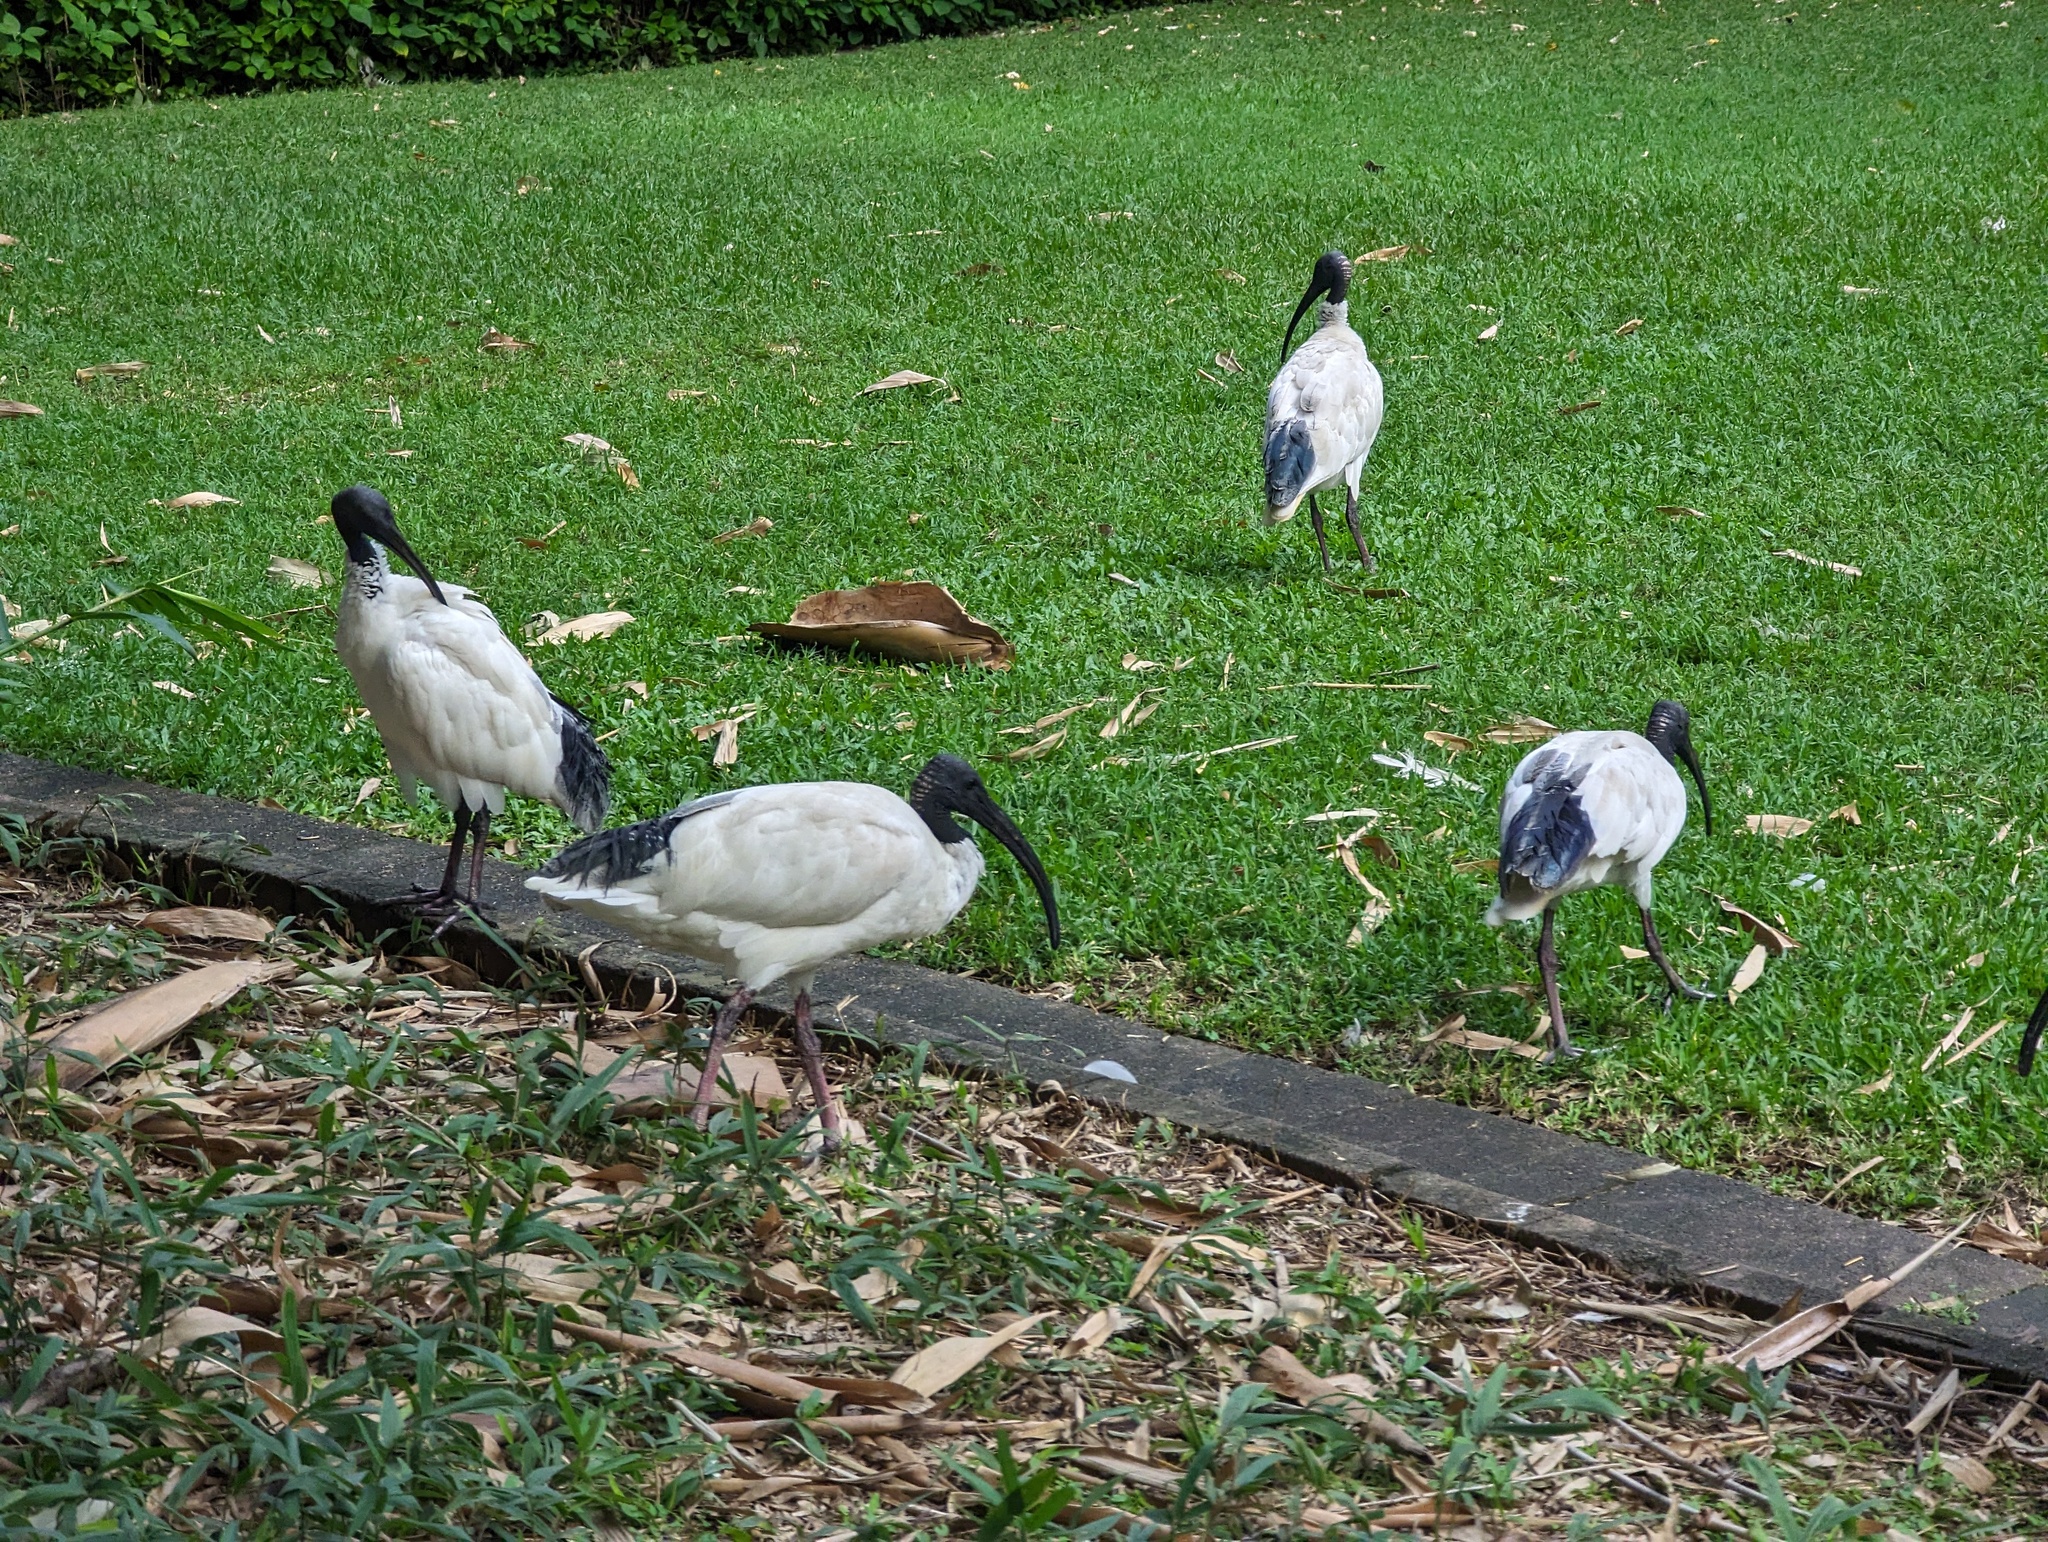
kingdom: Animalia
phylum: Chordata
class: Aves
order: Pelecaniformes
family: Threskiornithidae
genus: Threskiornis
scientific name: Threskiornis molucca
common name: Australian white ibis
